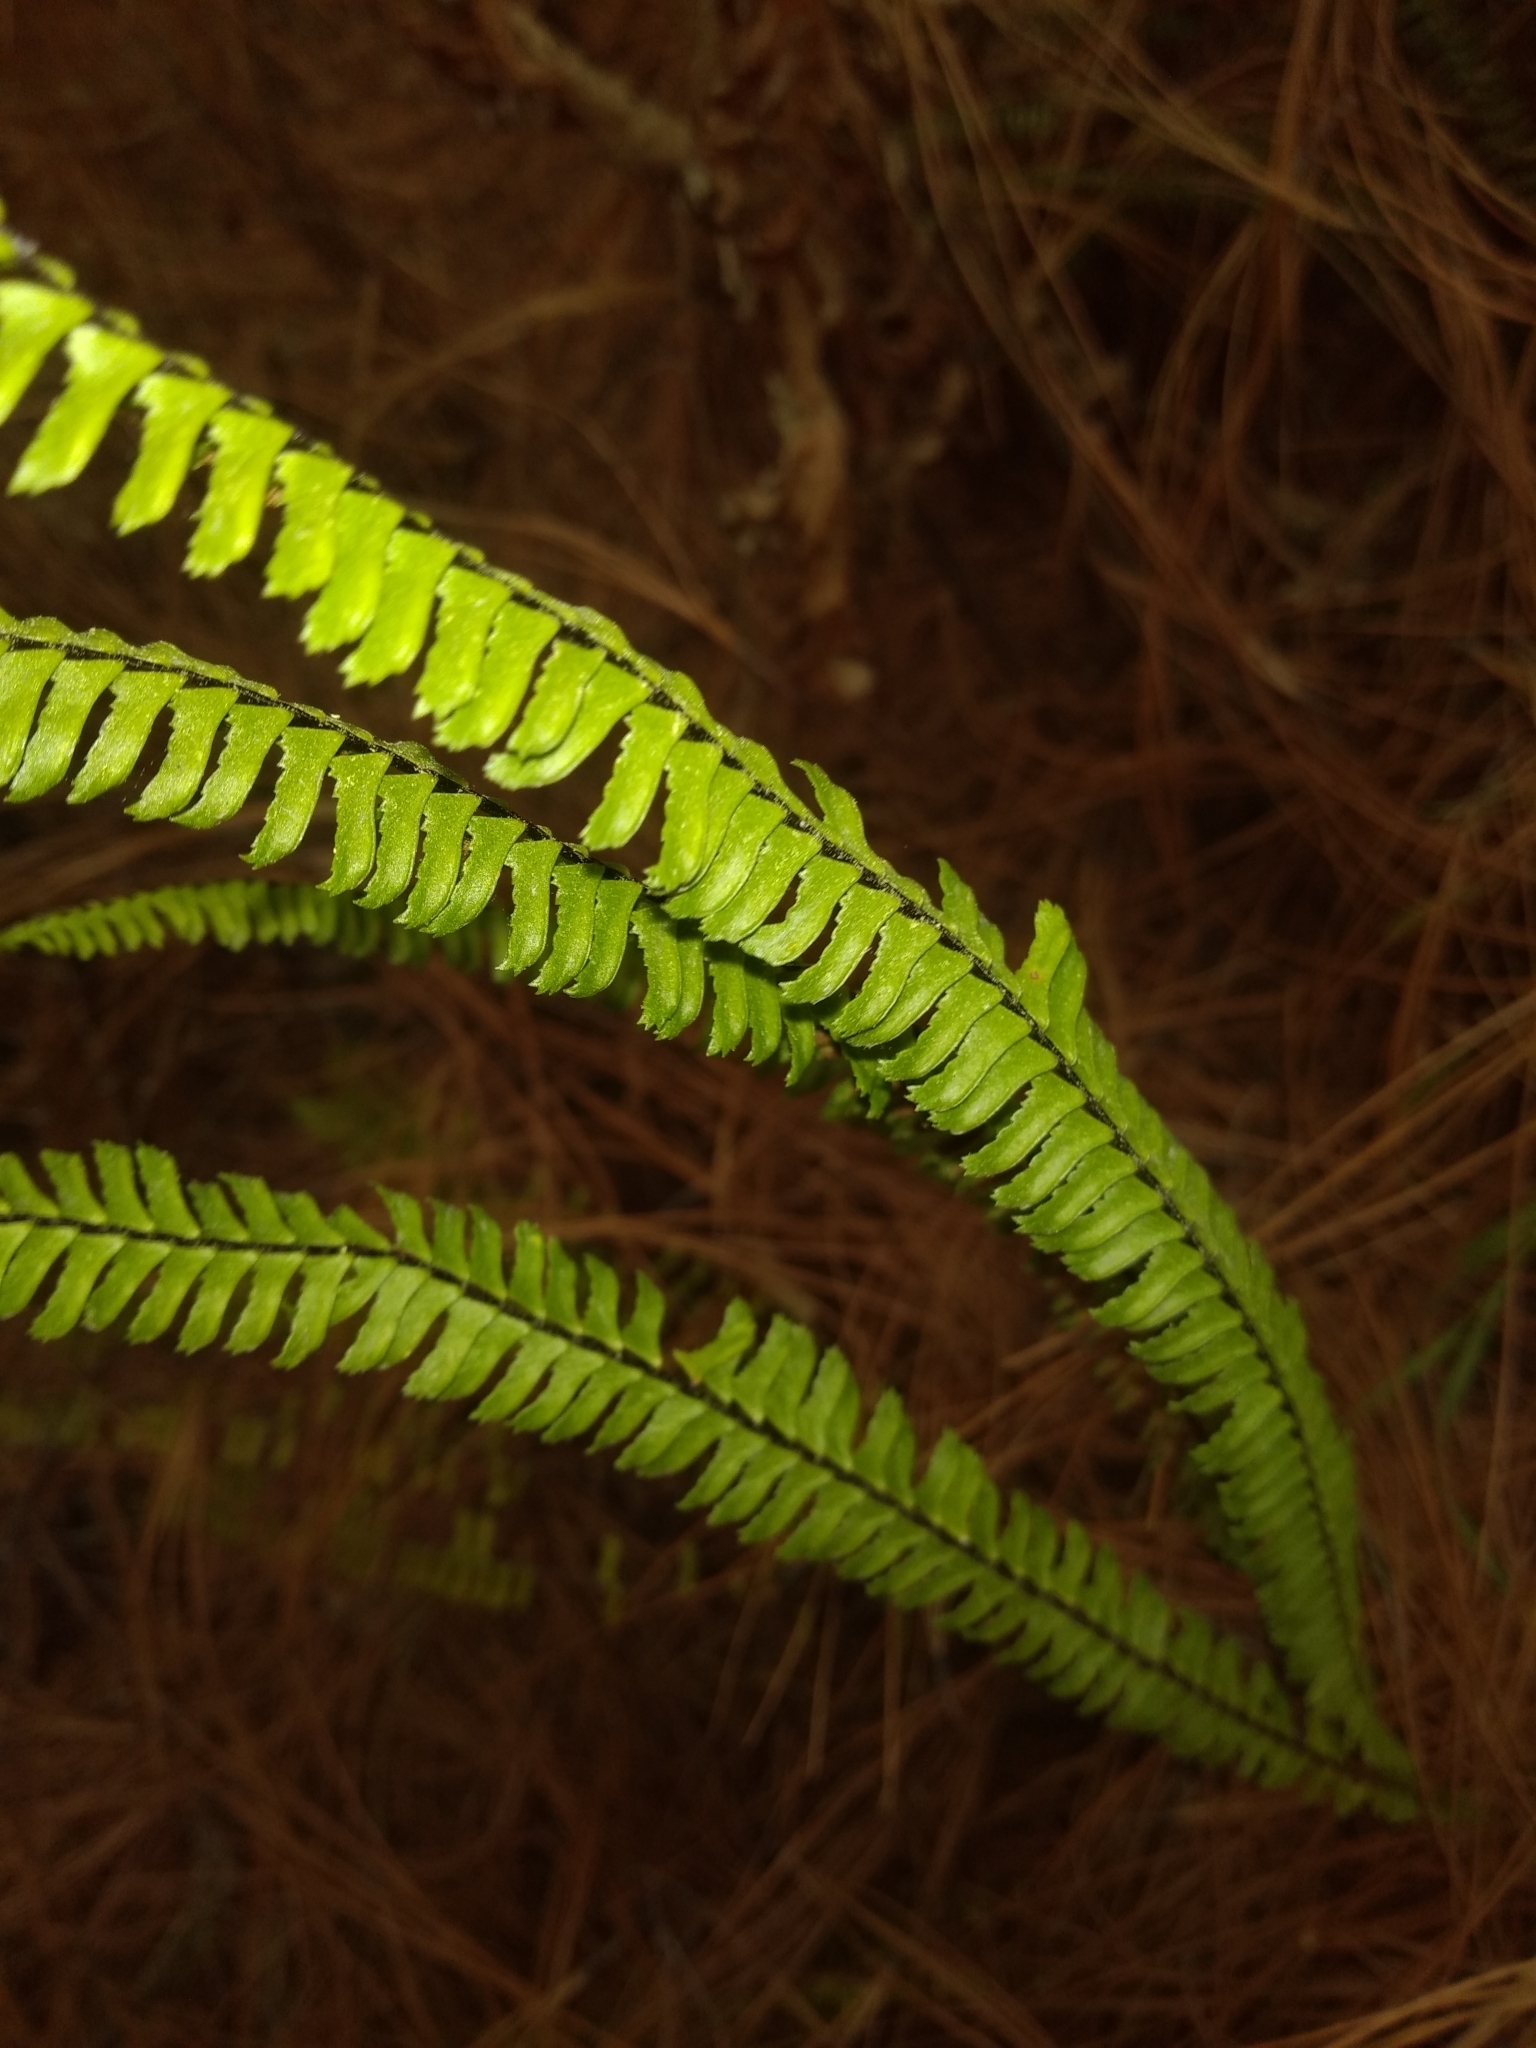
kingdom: Plantae
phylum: Tracheophyta
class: Polypodiopsida
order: Polypodiales
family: Aspleniaceae
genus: Asplenium
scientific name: Asplenium
